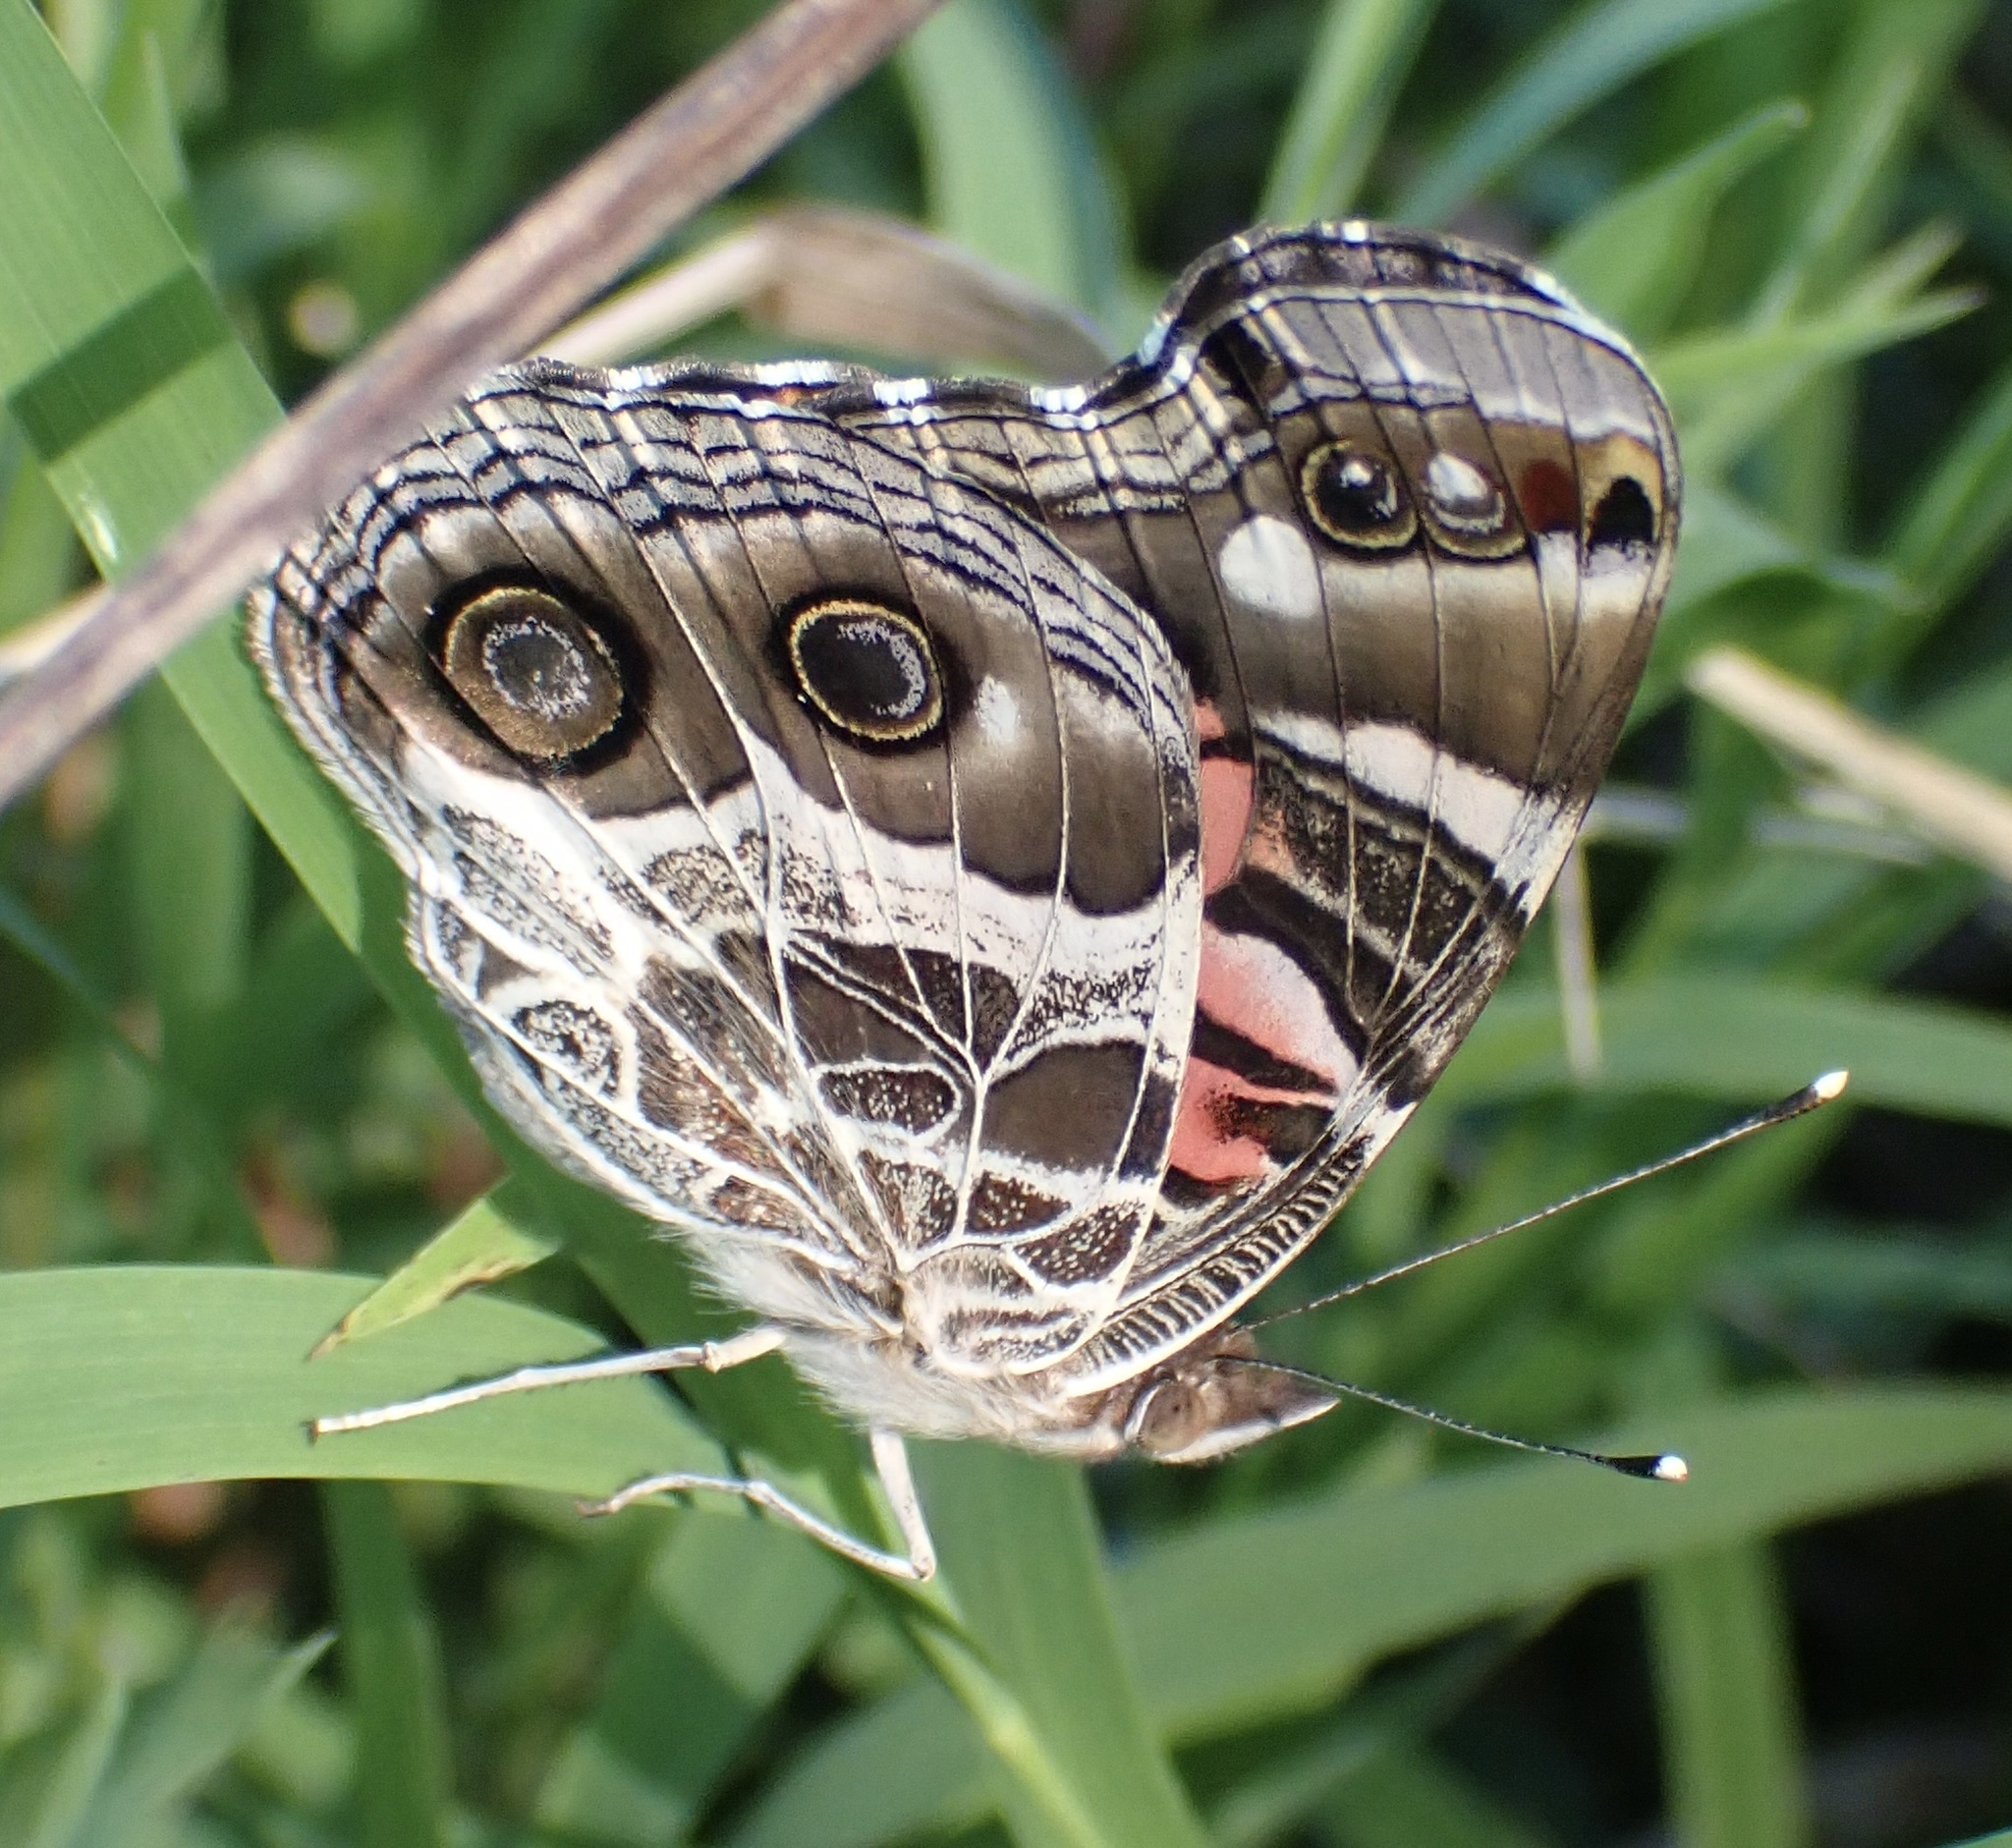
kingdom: Animalia
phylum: Arthropoda
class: Insecta
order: Lepidoptera
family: Nymphalidae
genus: Vanessa
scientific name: Vanessa virginiensis
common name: American lady
